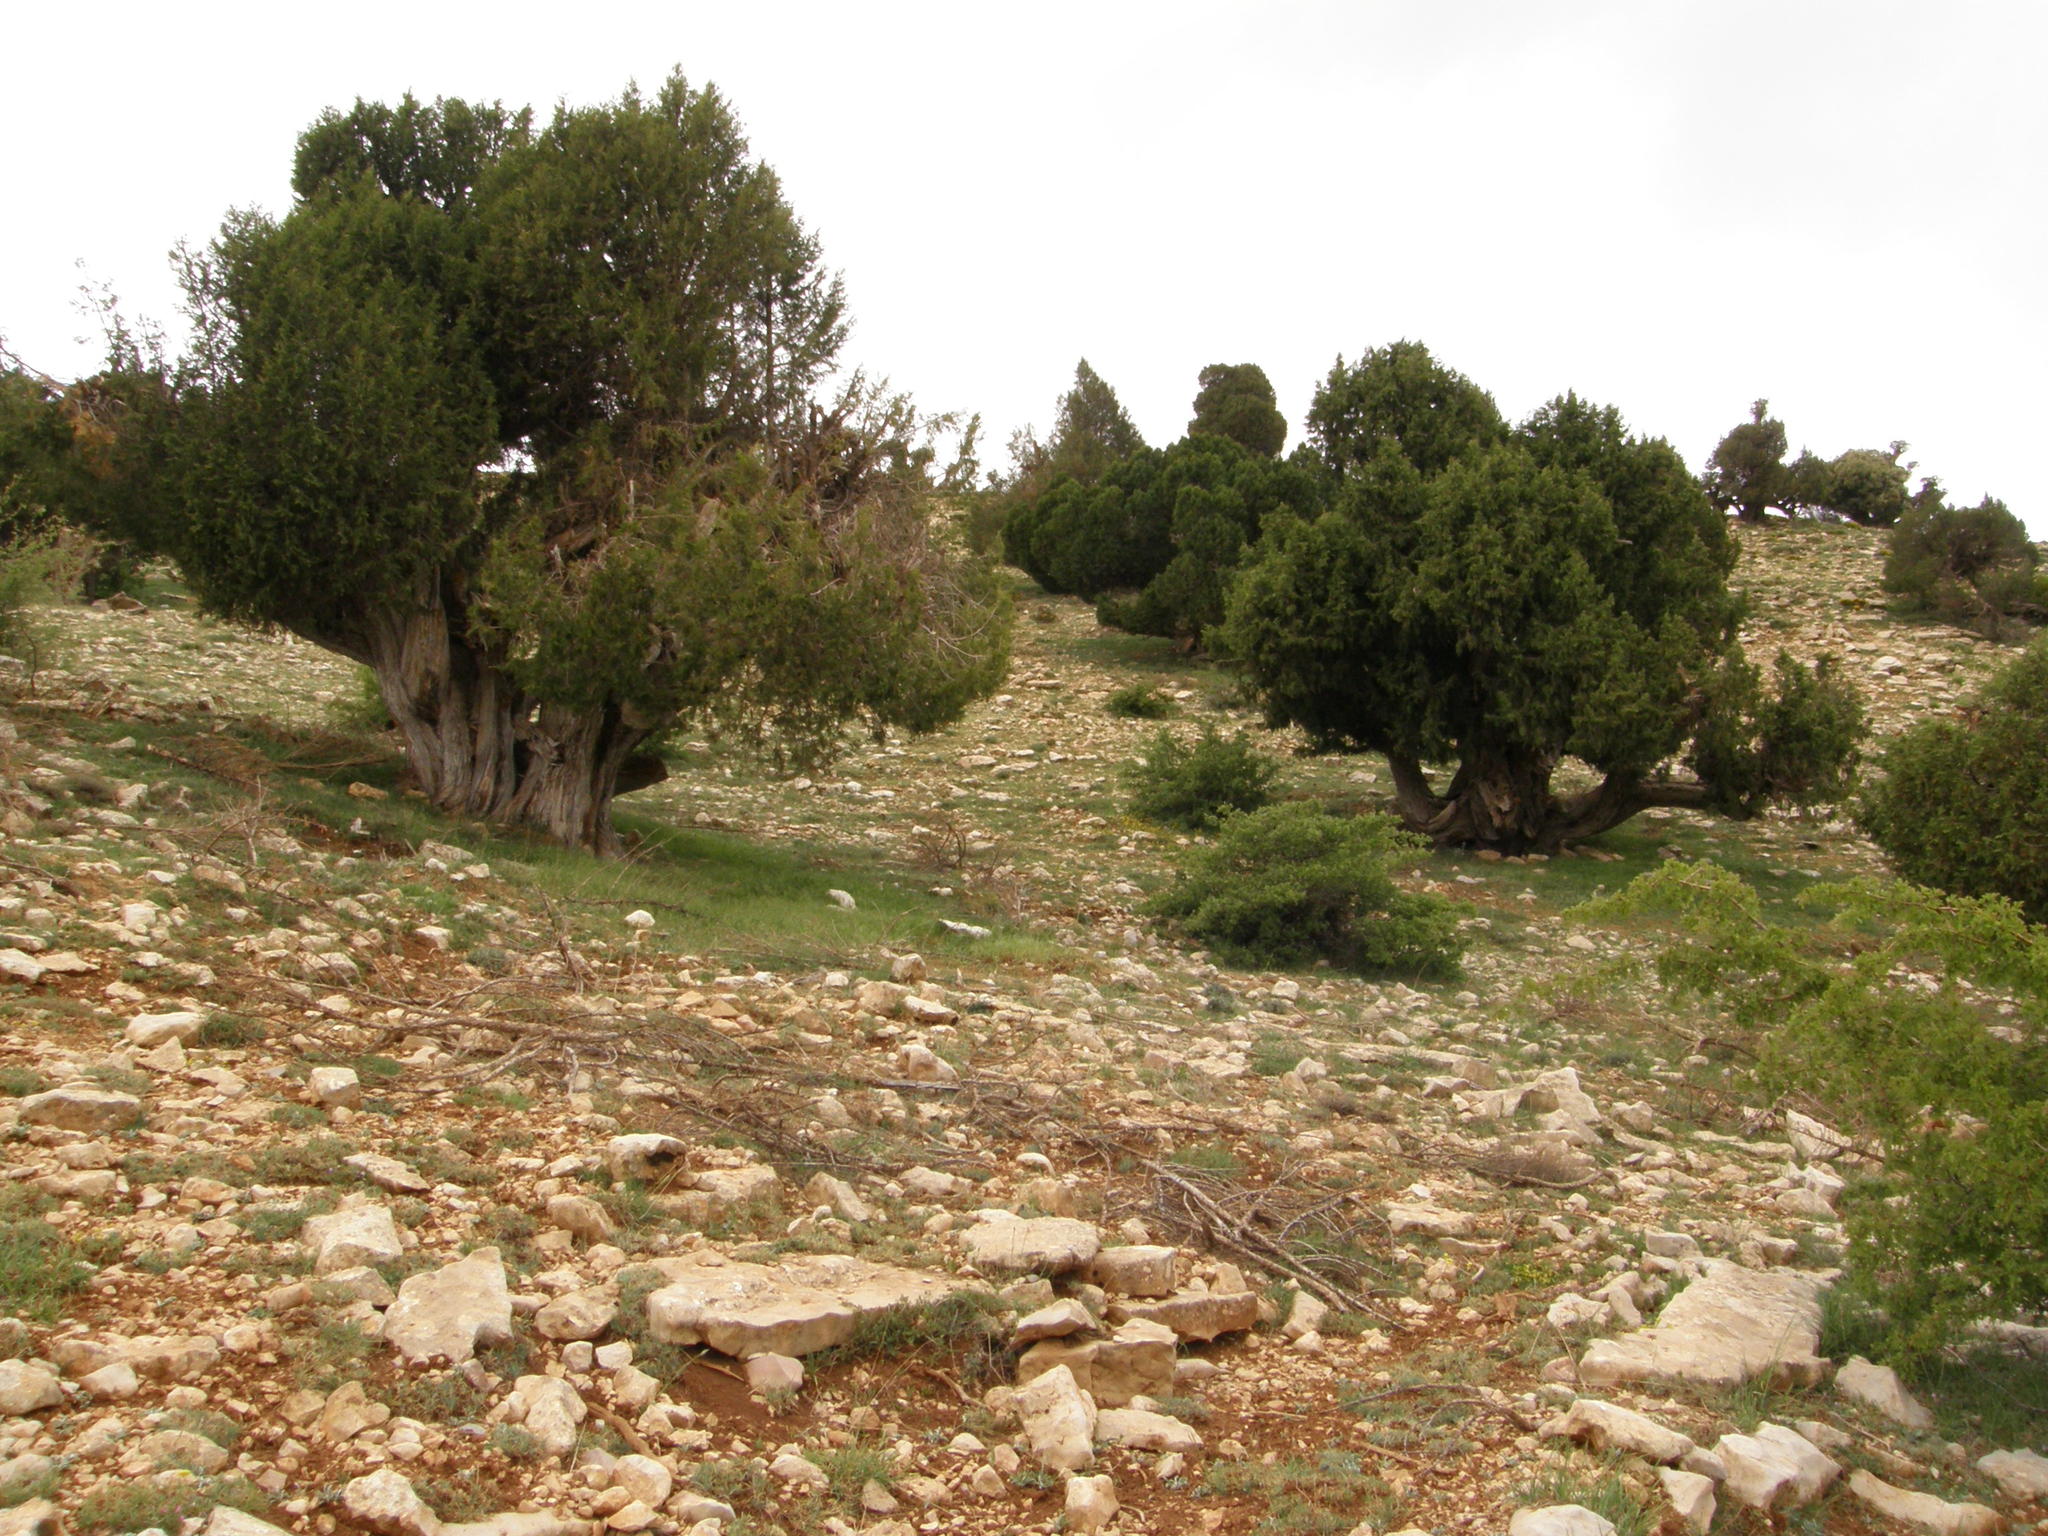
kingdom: Plantae
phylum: Tracheophyta
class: Pinopsida
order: Pinales
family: Cupressaceae
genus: Juniperus
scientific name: Juniperus thurifera
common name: Incense juniper
